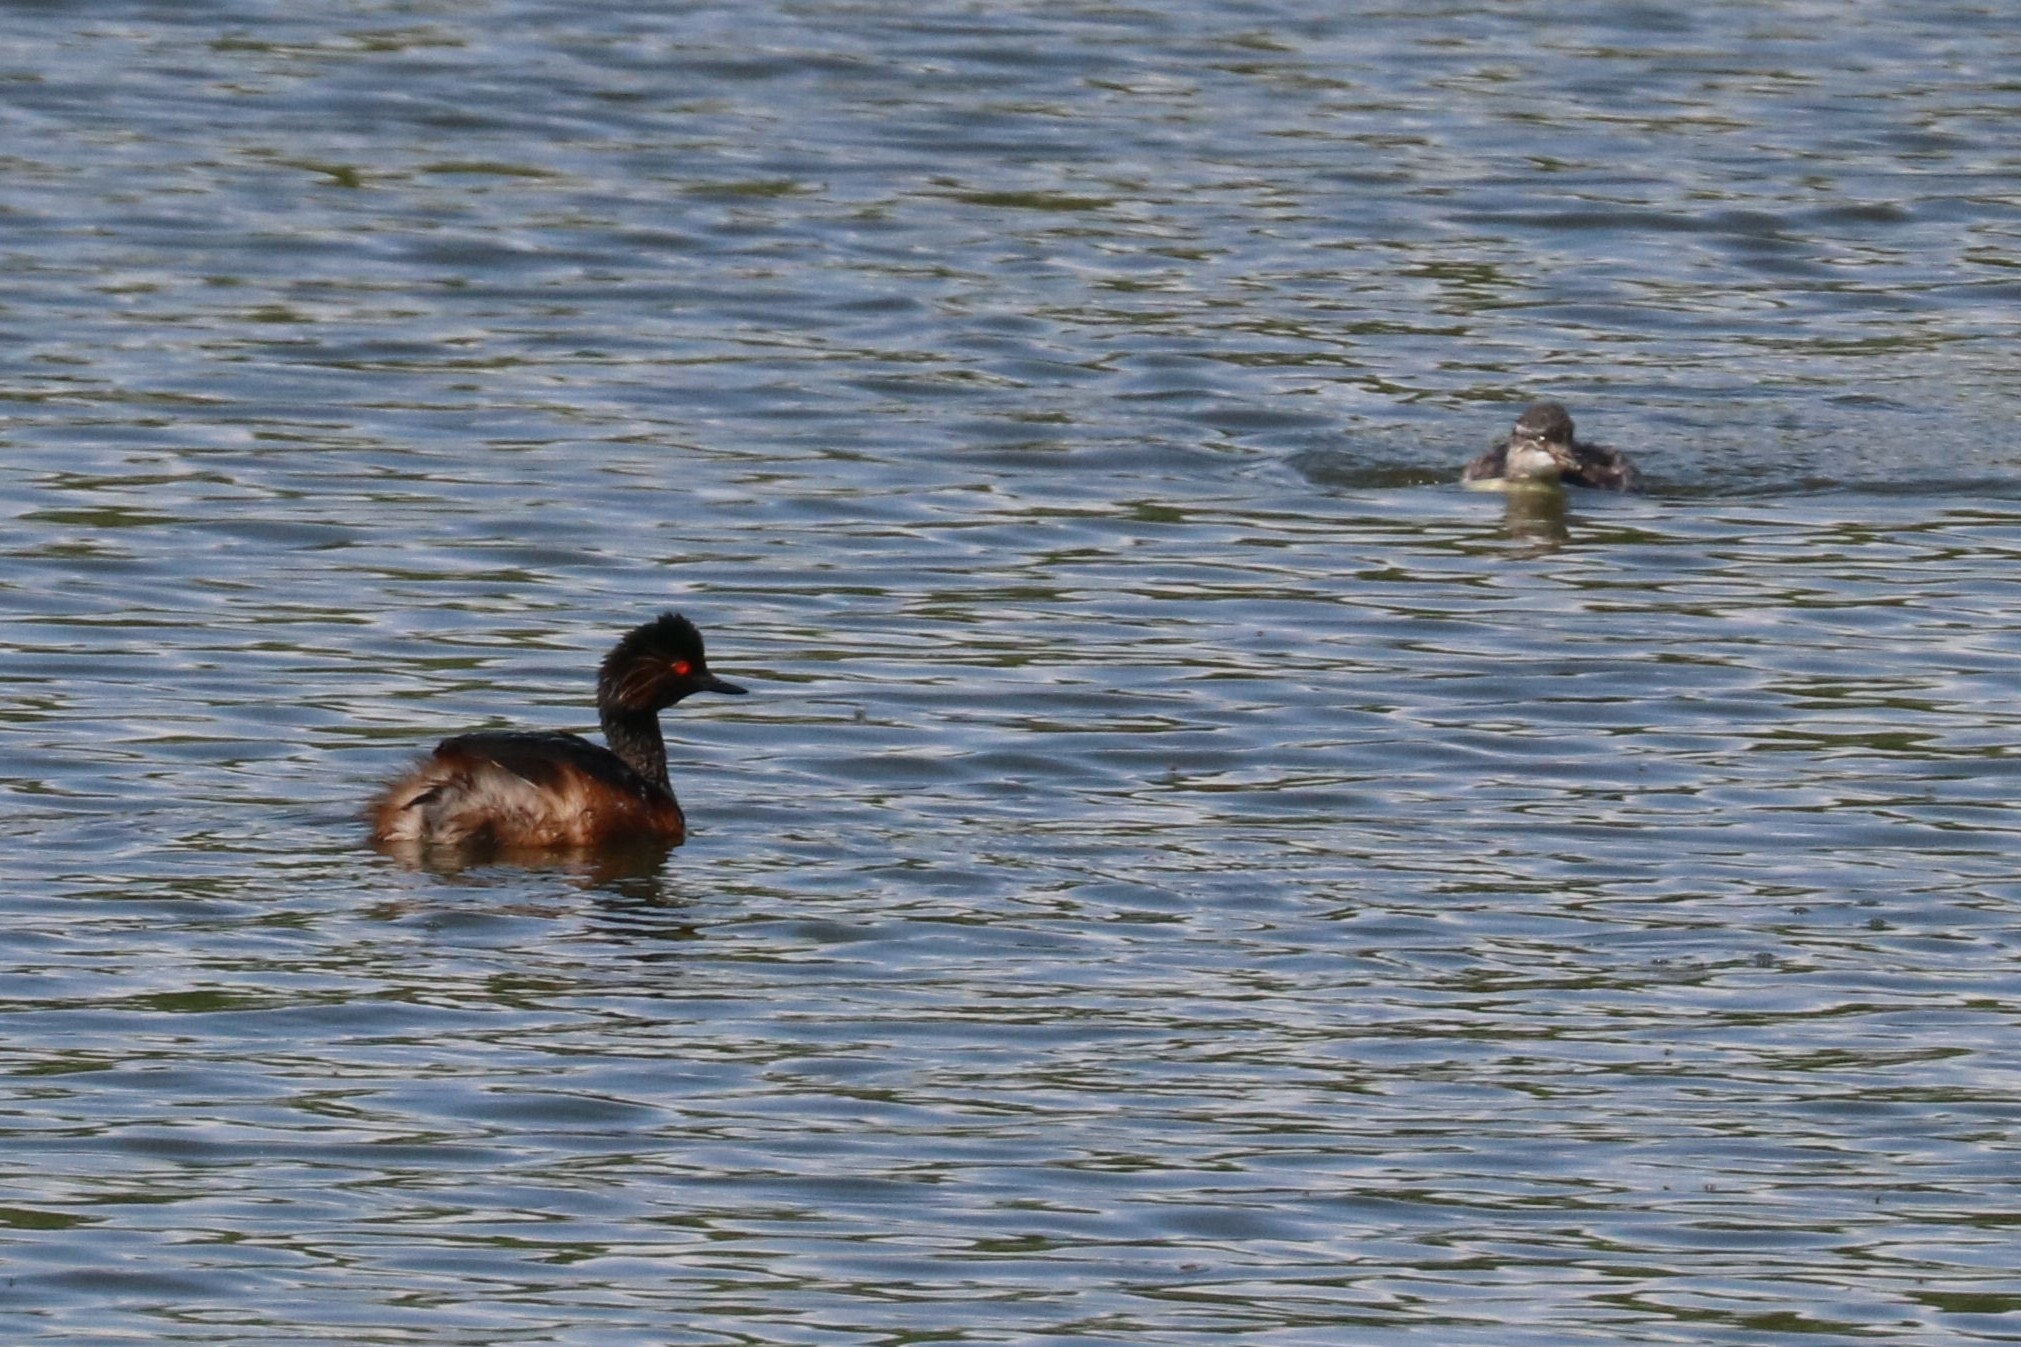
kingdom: Animalia
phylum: Chordata
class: Aves
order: Podicipediformes
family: Podicipedidae
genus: Podiceps
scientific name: Podiceps nigricollis
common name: Black-necked grebe
